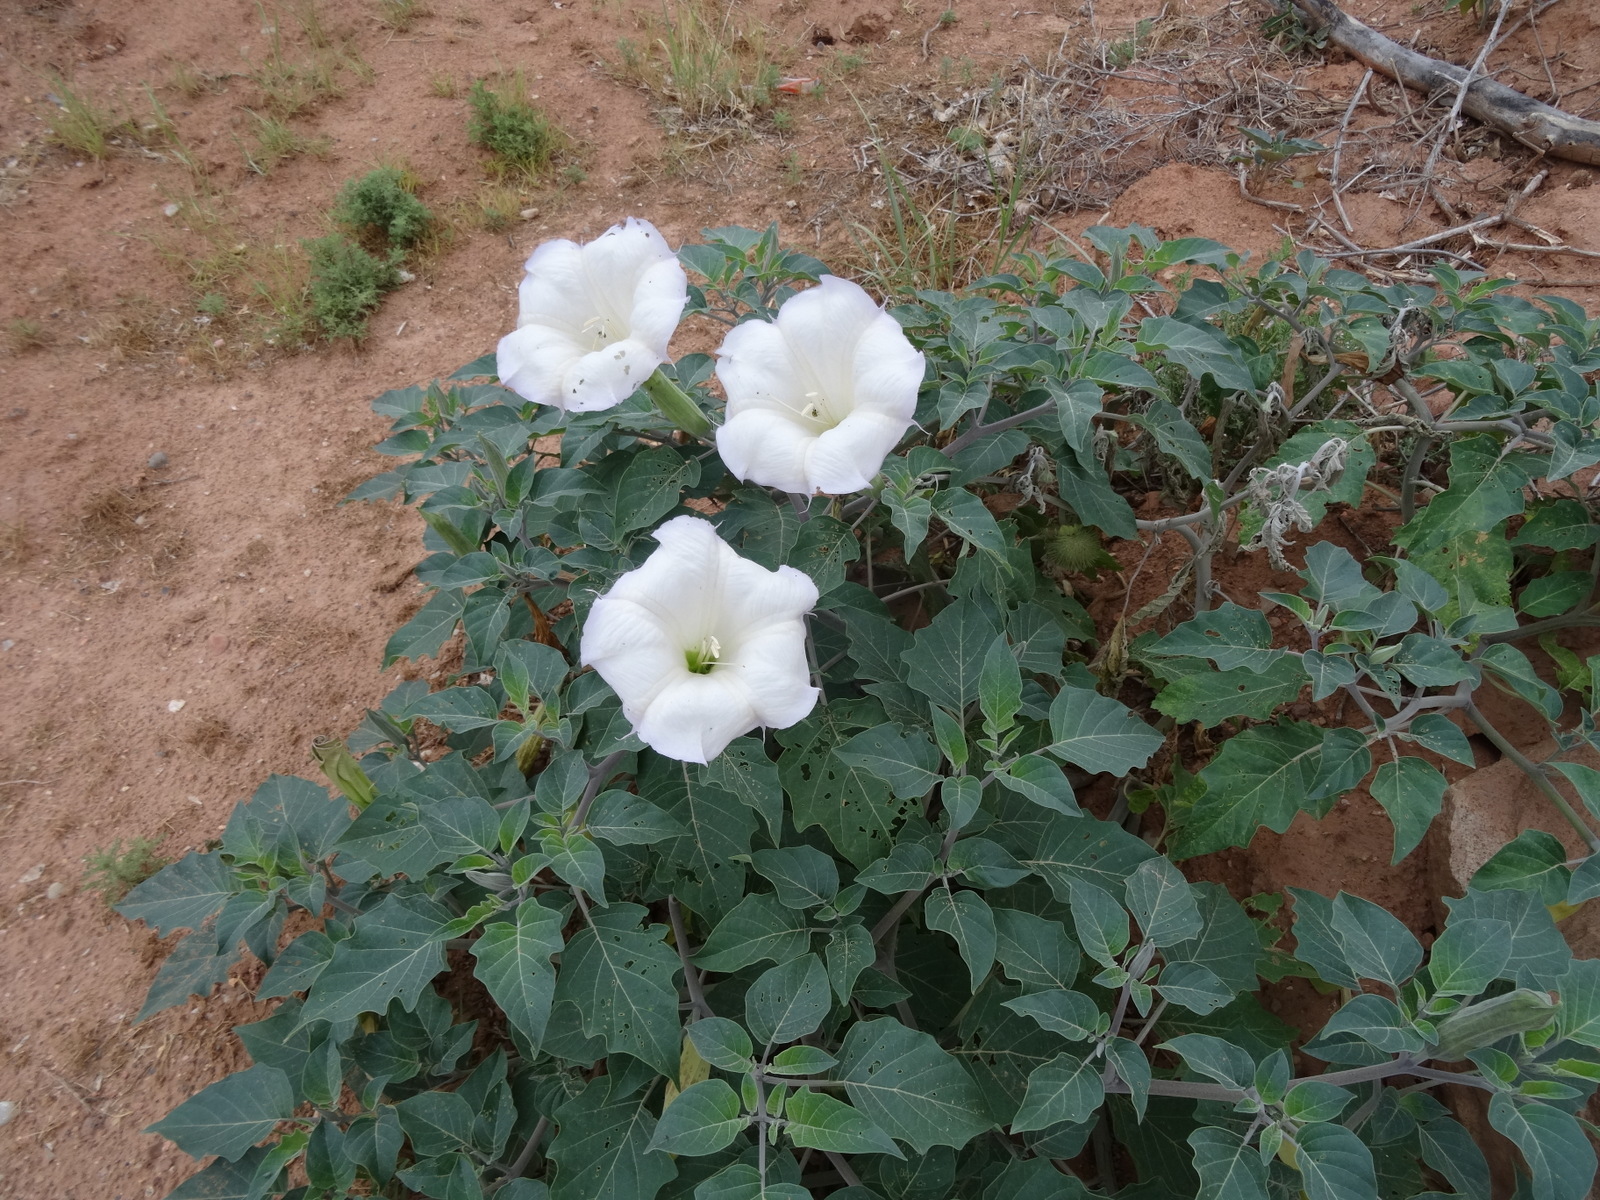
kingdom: Plantae
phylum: Tracheophyta
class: Magnoliopsida
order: Solanales
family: Solanaceae
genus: Datura
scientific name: Datura wrightii
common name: Sacred thorn-apple
